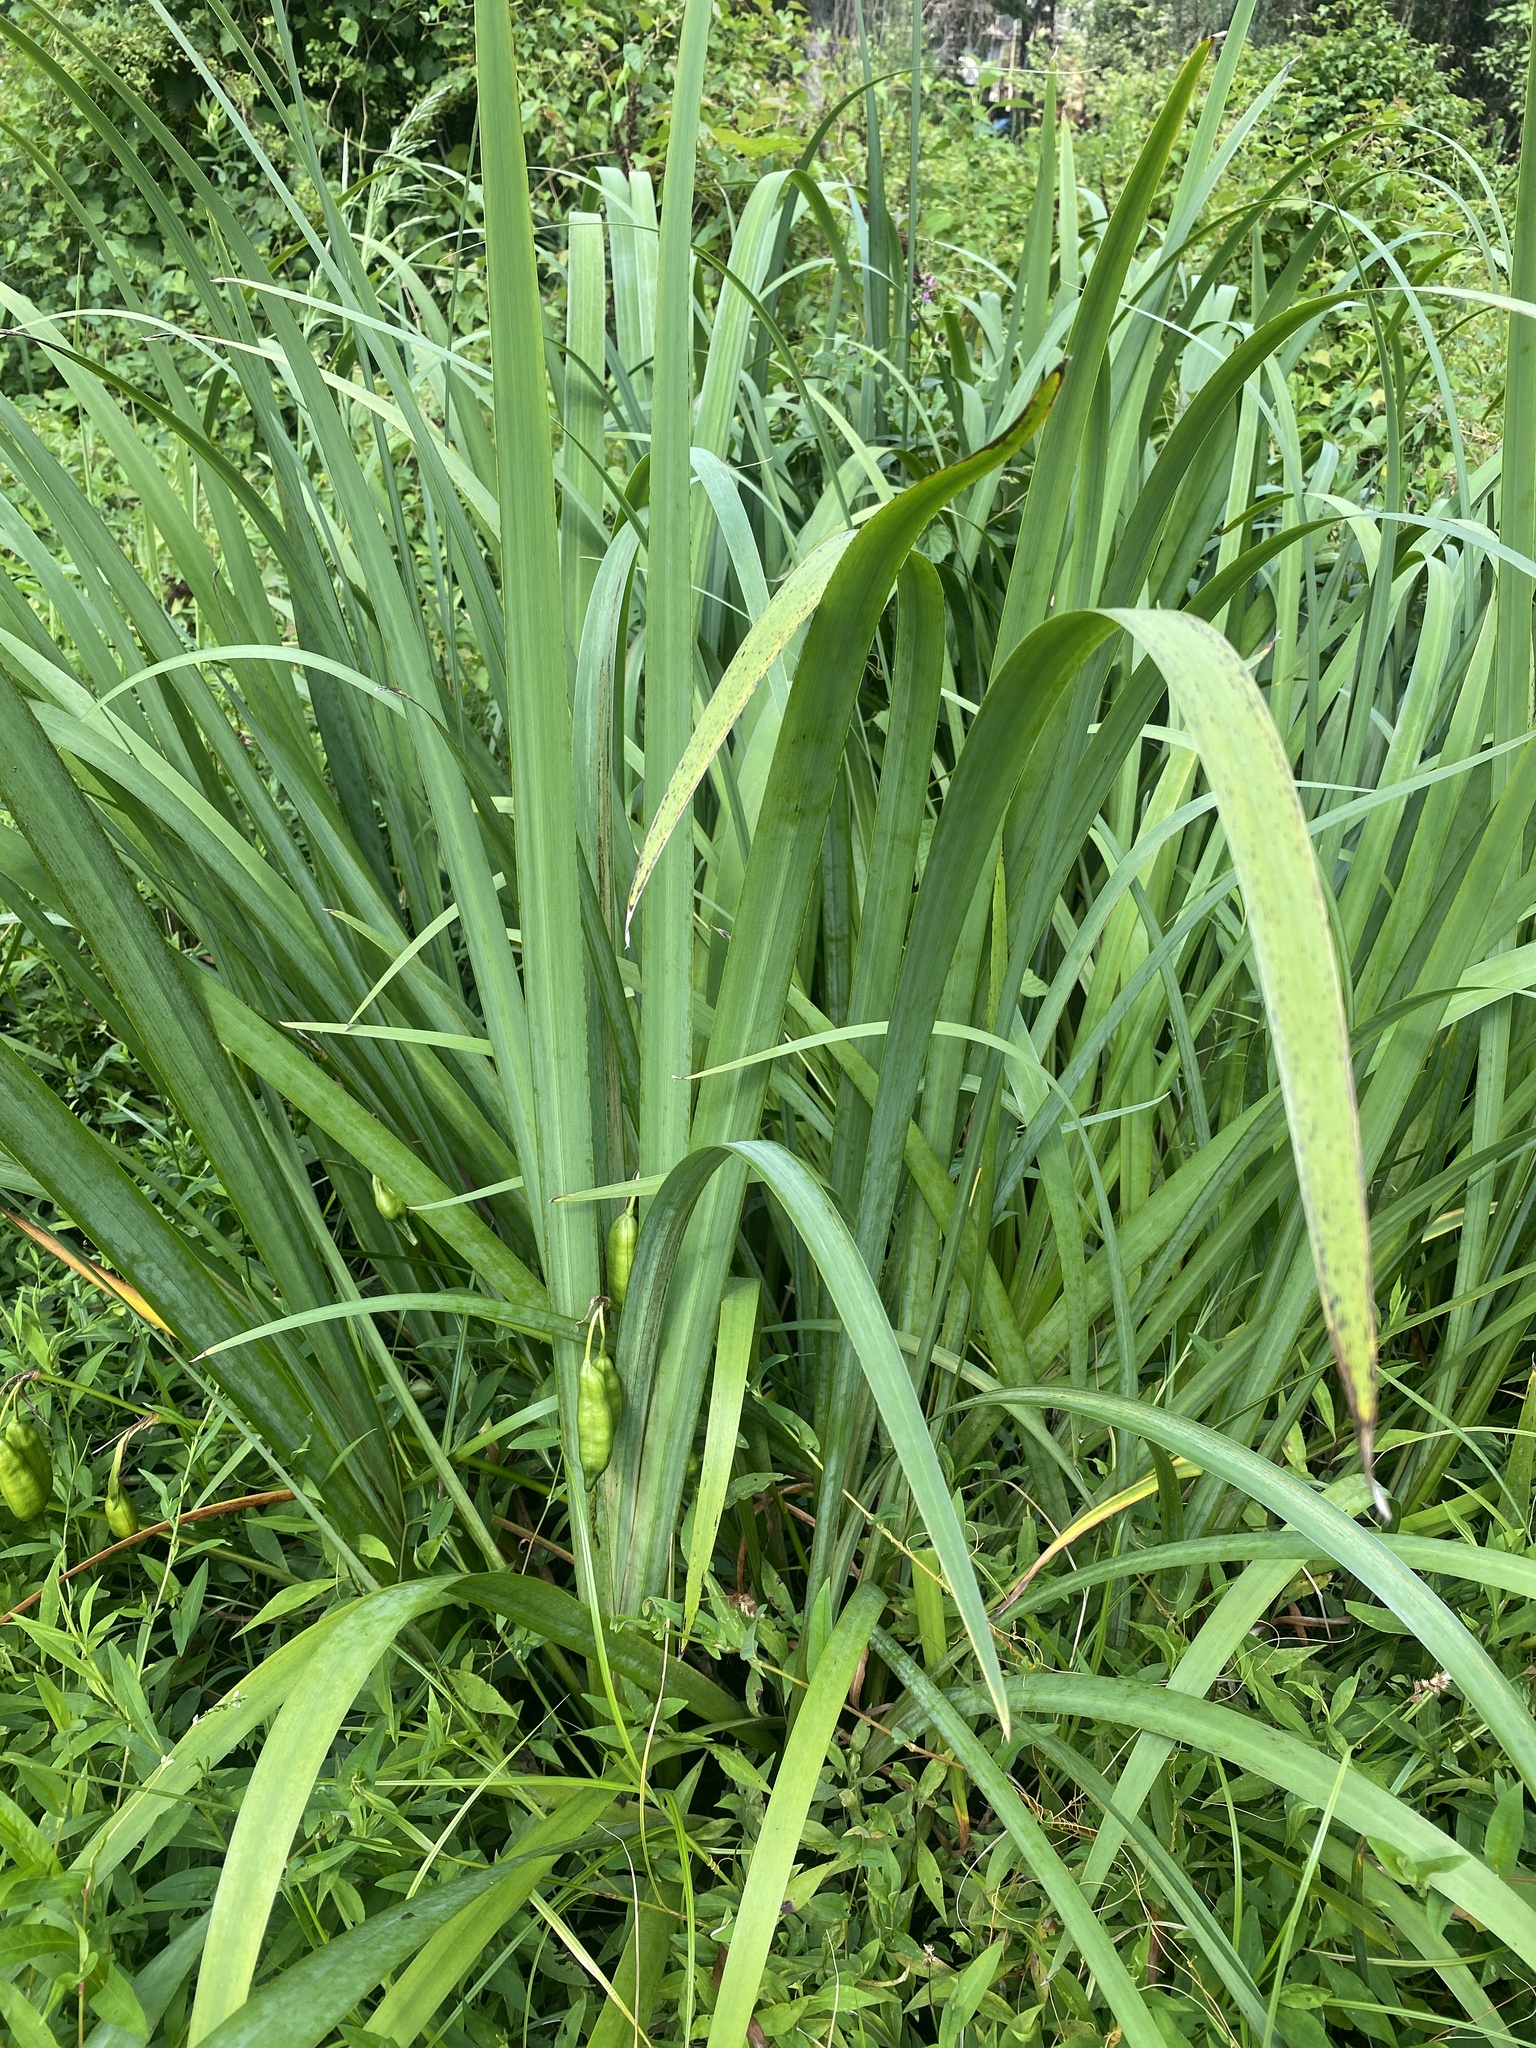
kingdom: Plantae
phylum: Tracheophyta
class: Liliopsida
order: Asparagales
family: Iridaceae
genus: Iris
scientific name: Iris pseudacorus
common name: Yellow flag
